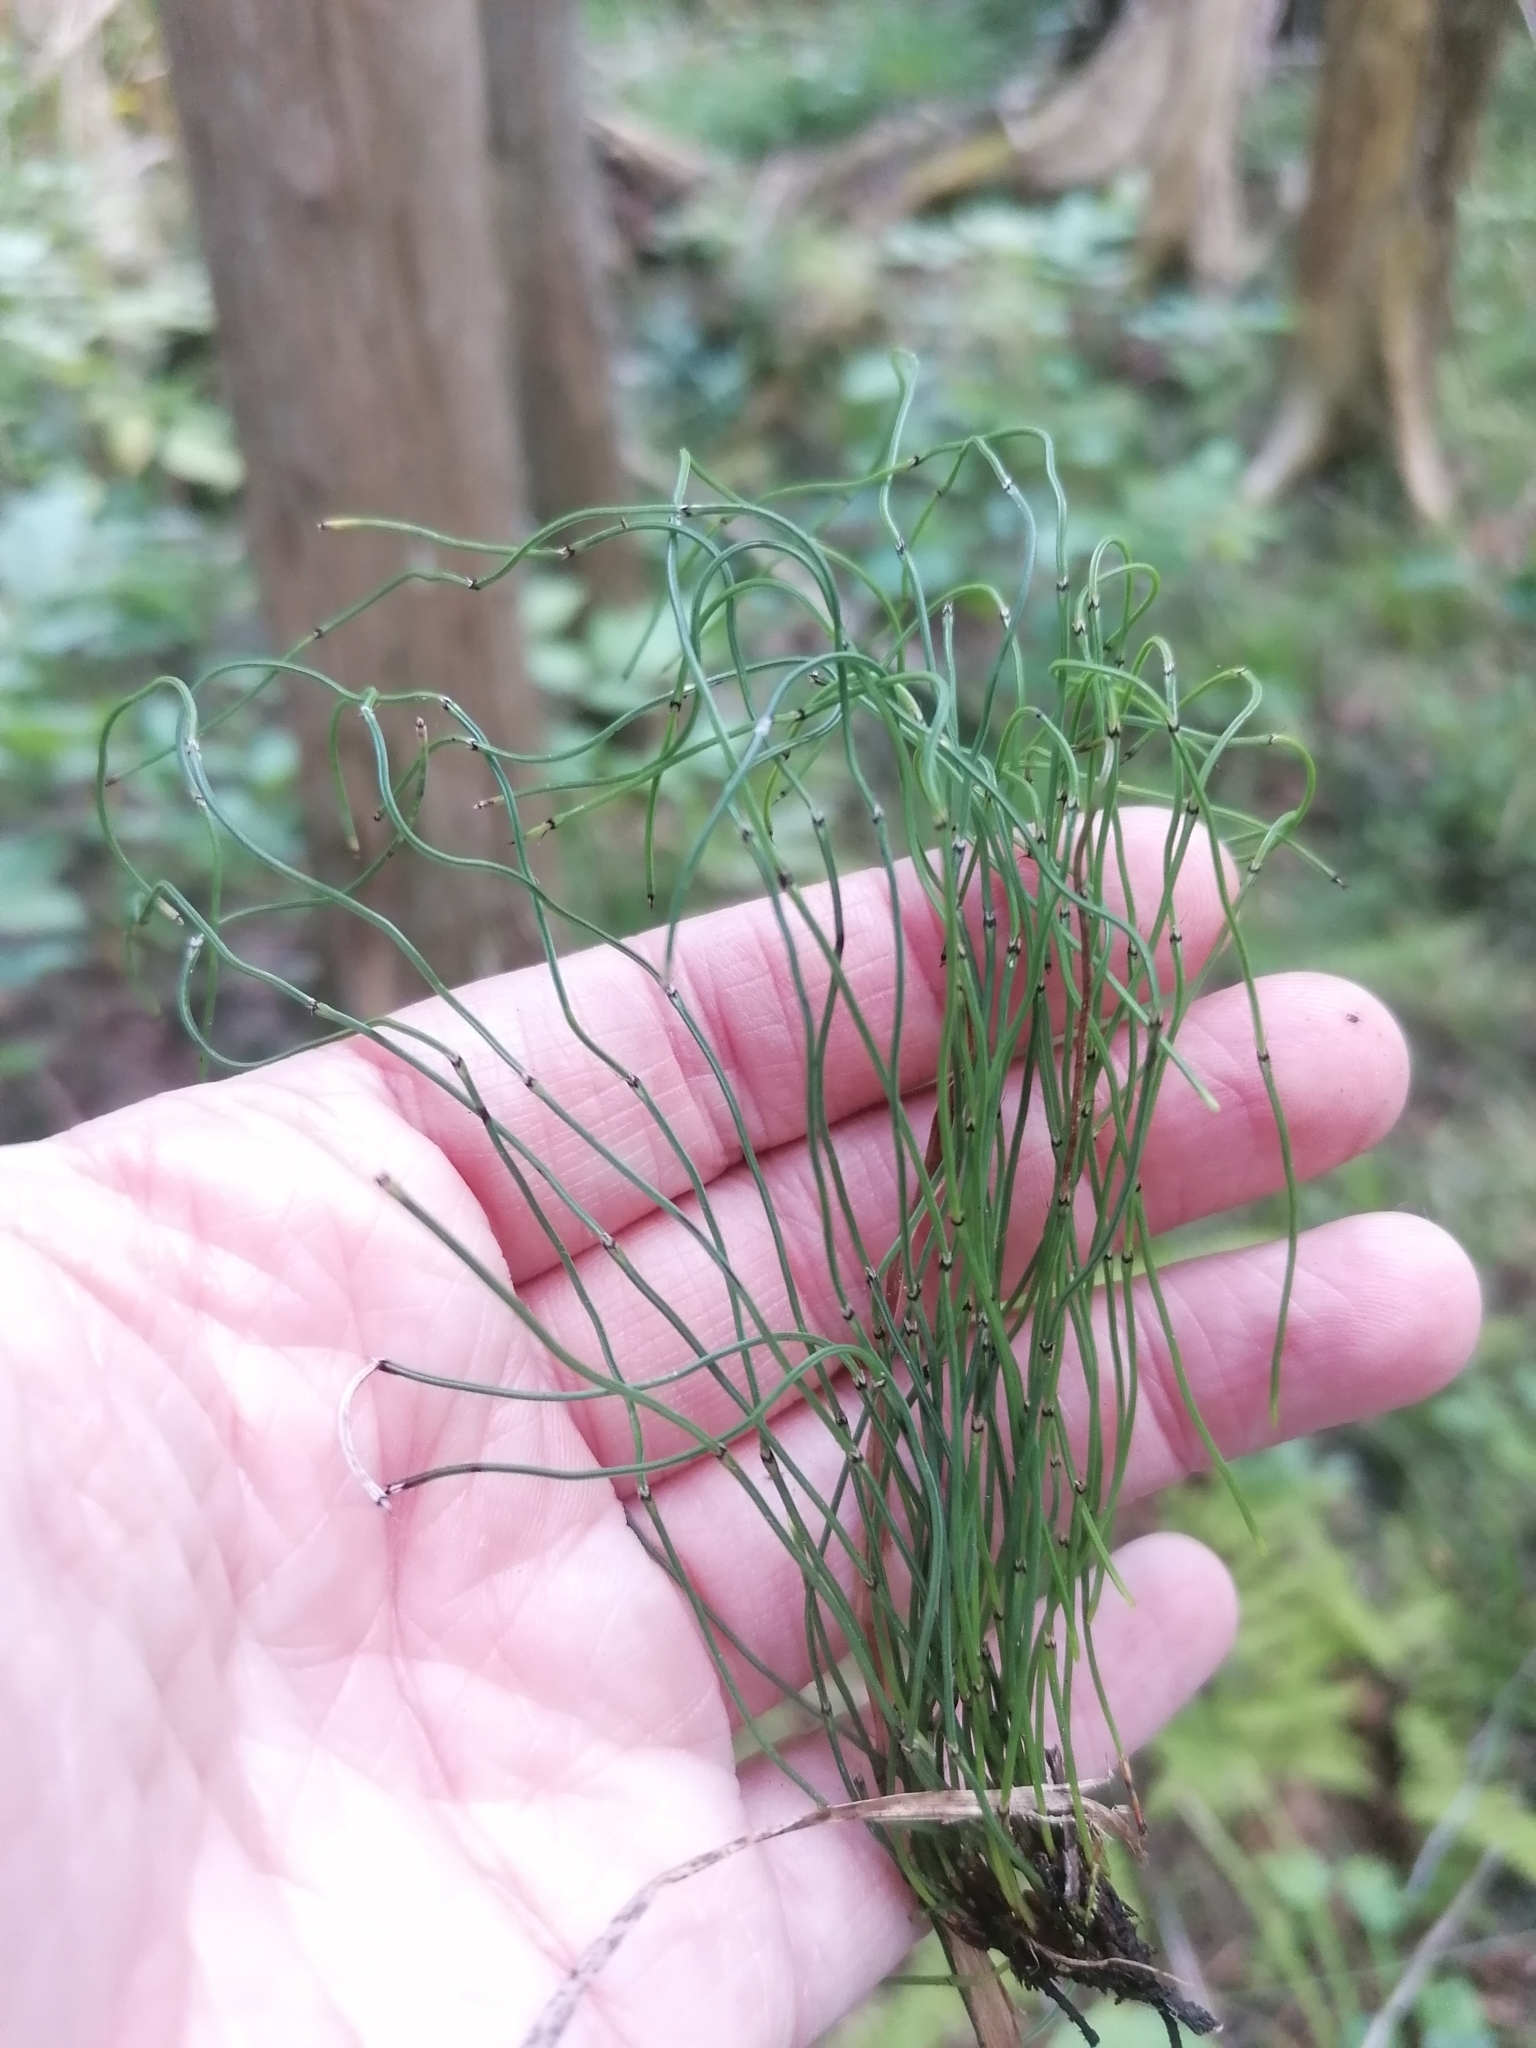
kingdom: Plantae
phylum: Tracheophyta
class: Polypodiopsida
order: Equisetales
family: Equisetaceae
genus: Equisetum
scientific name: Equisetum scirpoides
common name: Delicate horsetail
